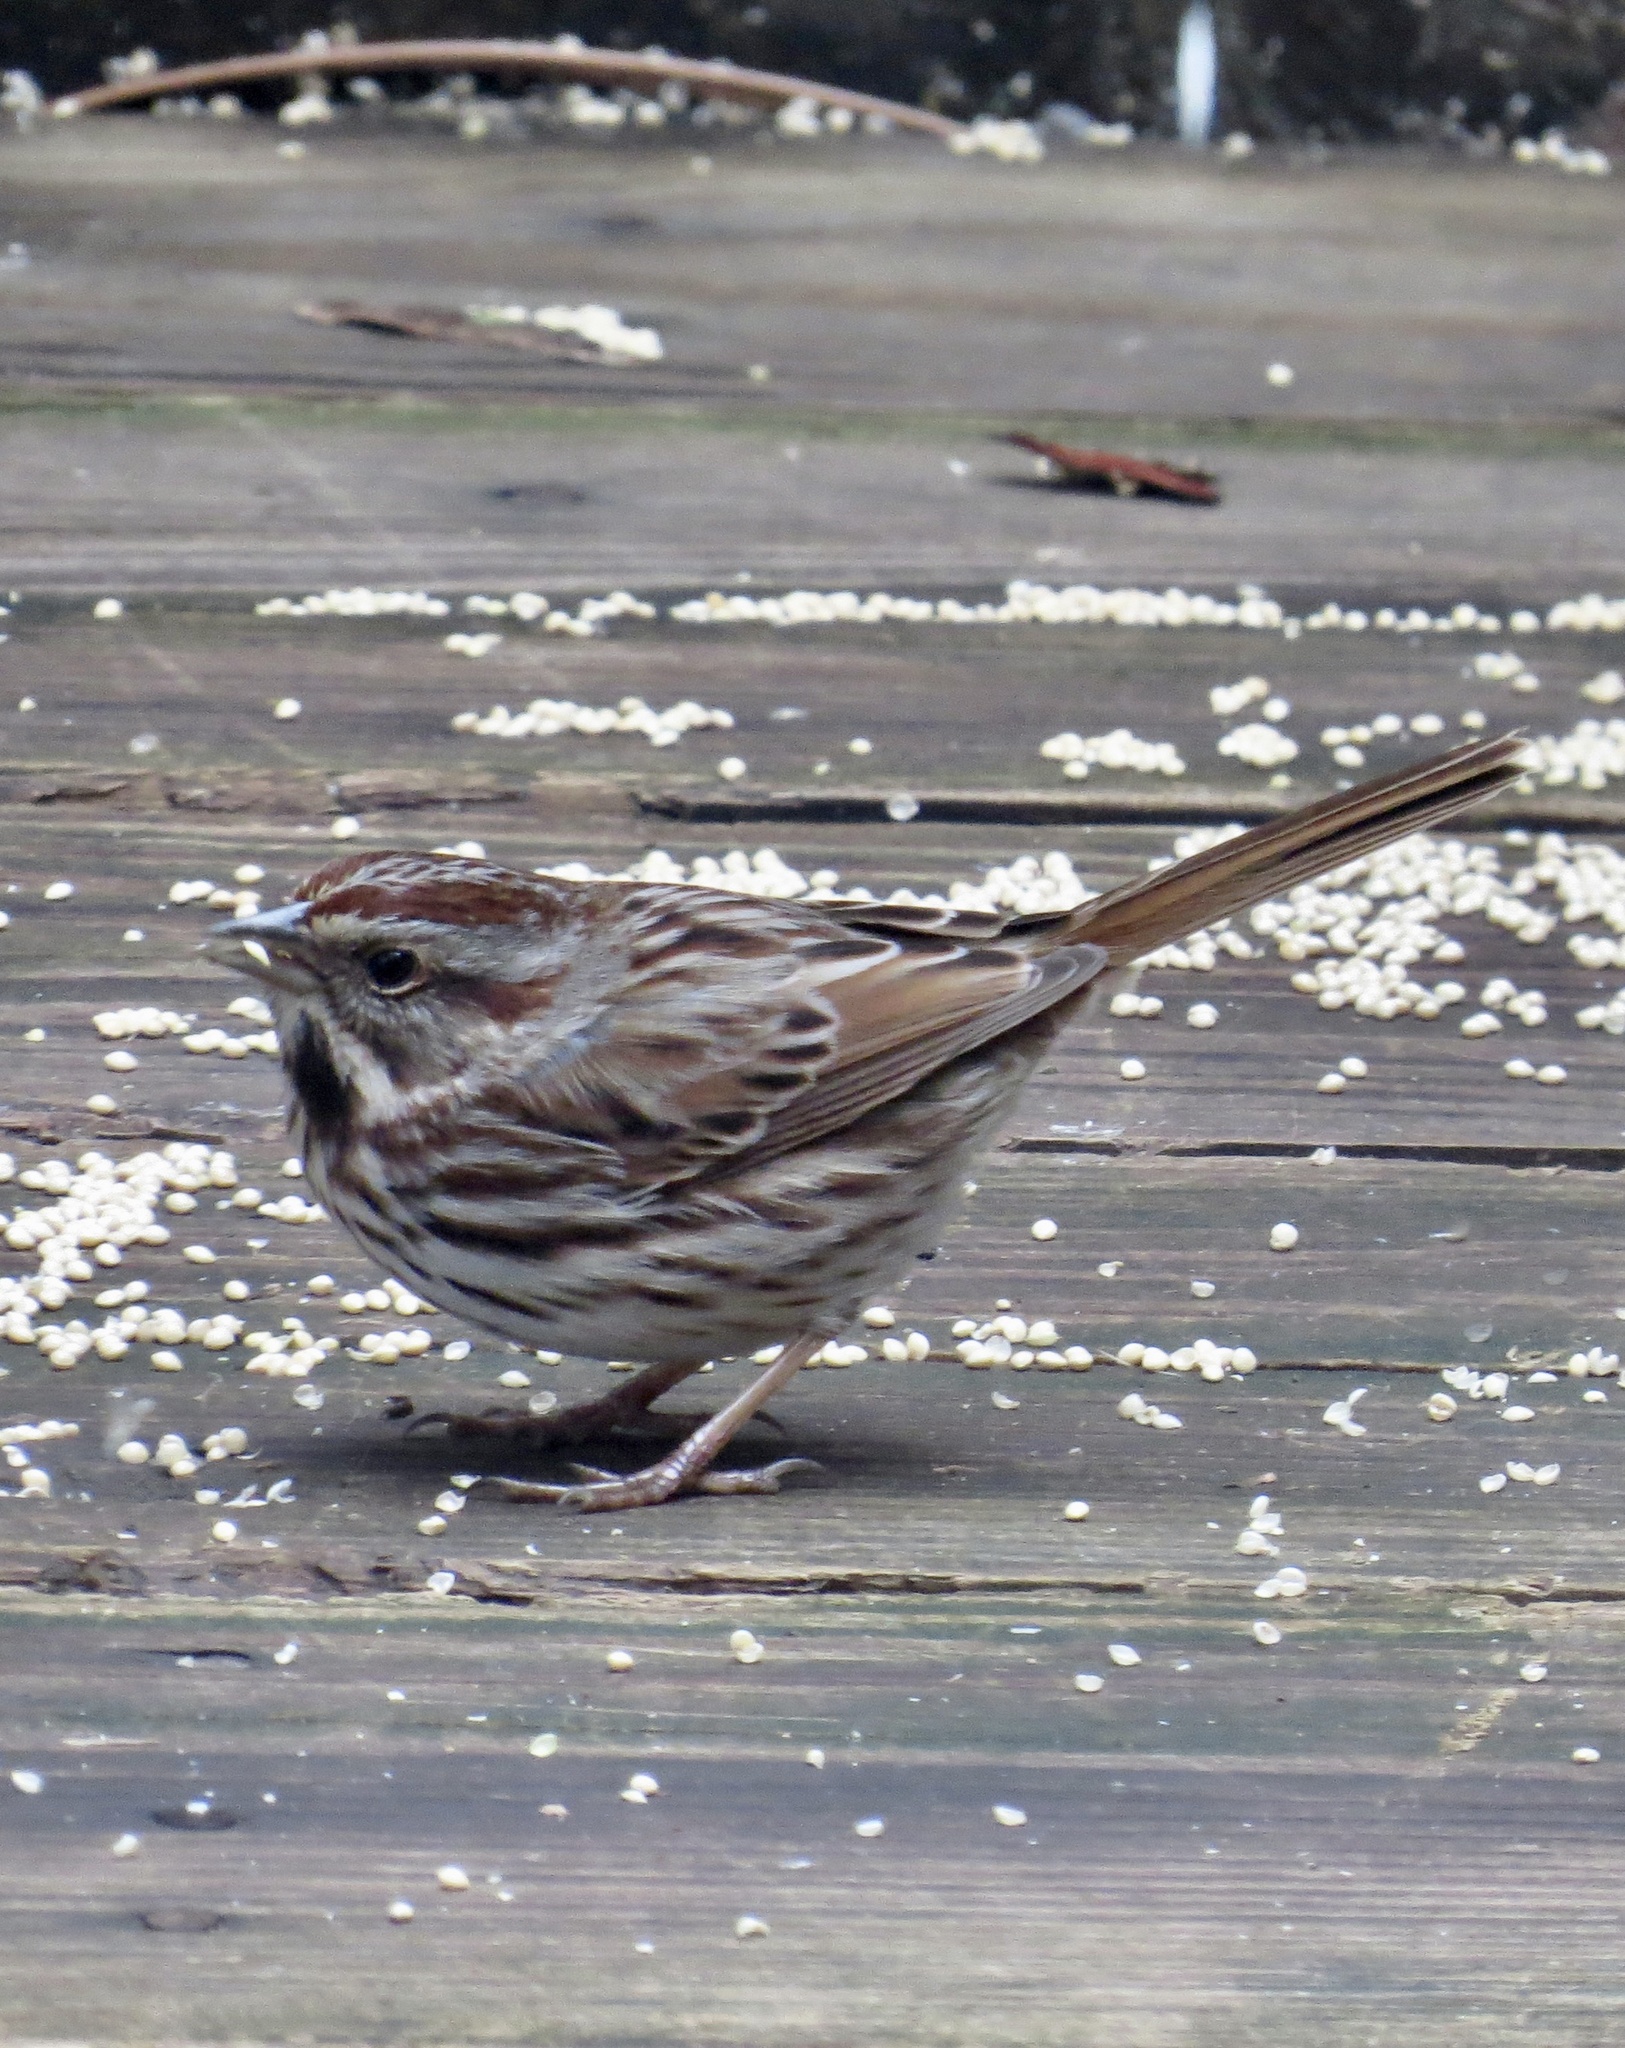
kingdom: Animalia
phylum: Chordata
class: Aves
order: Passeriformes
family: Passerellidae
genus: Melospiza
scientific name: Melospiza melodia
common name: Song sparrow
